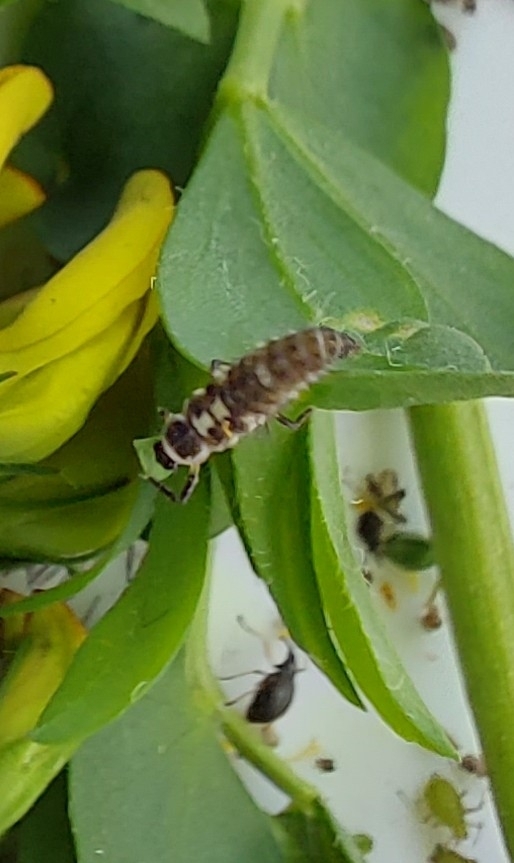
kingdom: Animalia
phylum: Arthropoda
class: Insecta
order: Coleoptera
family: Coccinellidae
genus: Propylaea
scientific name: Propylaea quatuordecimpunctata
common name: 14-spotted ladybird beetle
